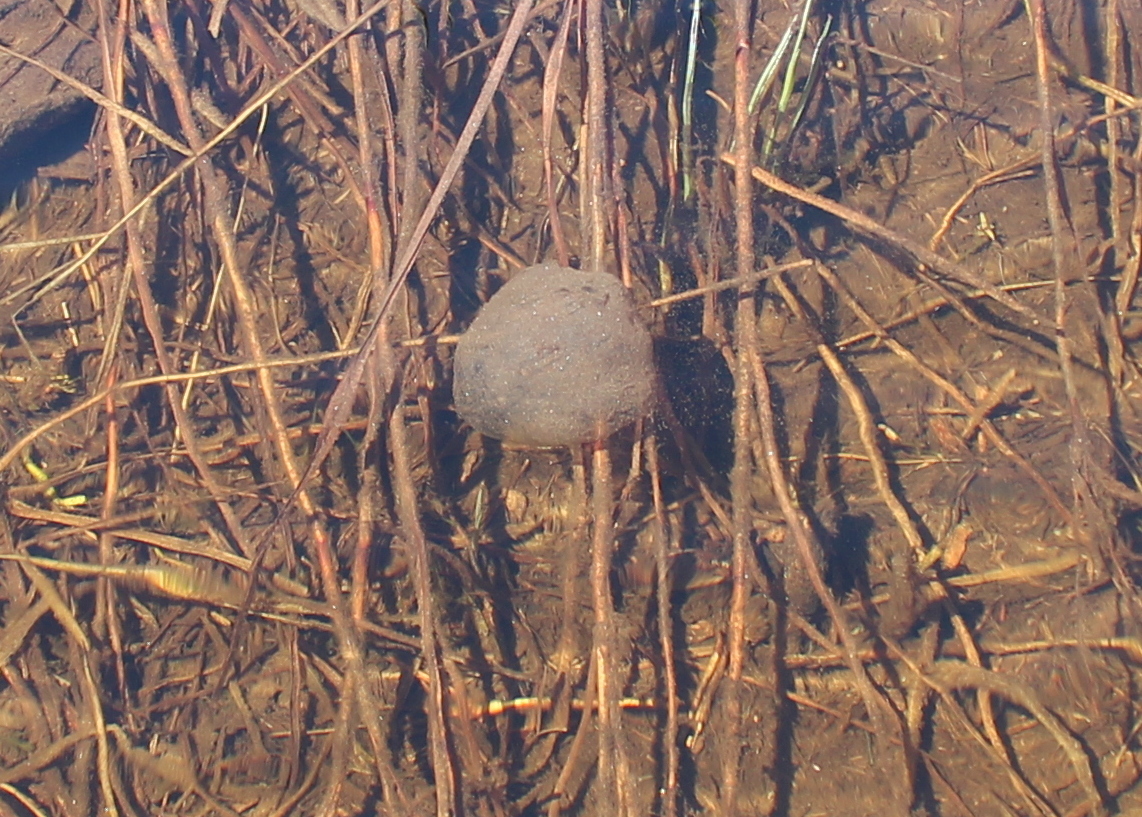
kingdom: Animalia
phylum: Chordata
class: Amphibia
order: Caudata
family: Ambystomatidae
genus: Ambystoma
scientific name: Ambystoma maculatum
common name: Spotted salamander
